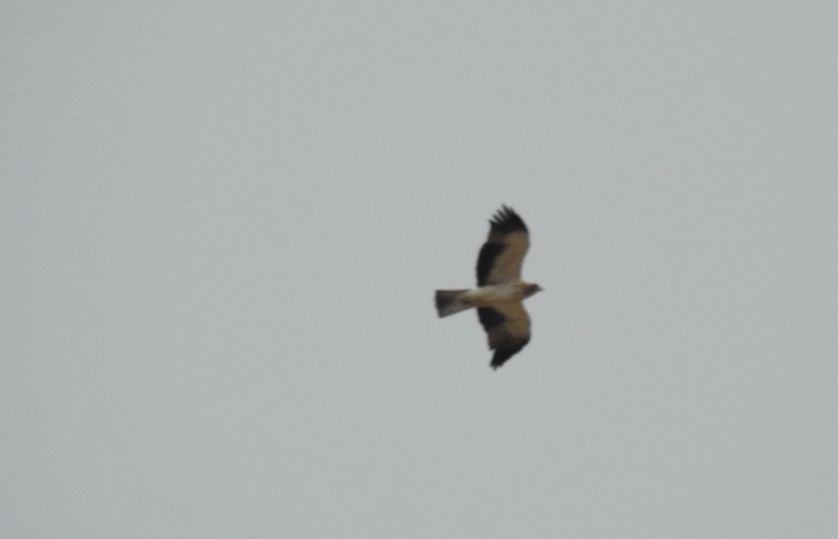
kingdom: Animalia
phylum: Chordata
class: Aves
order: Accipitriformes
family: Accipitridae
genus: Hieraaetus
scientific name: Hieraaetus pennatus
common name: Booted eagle
